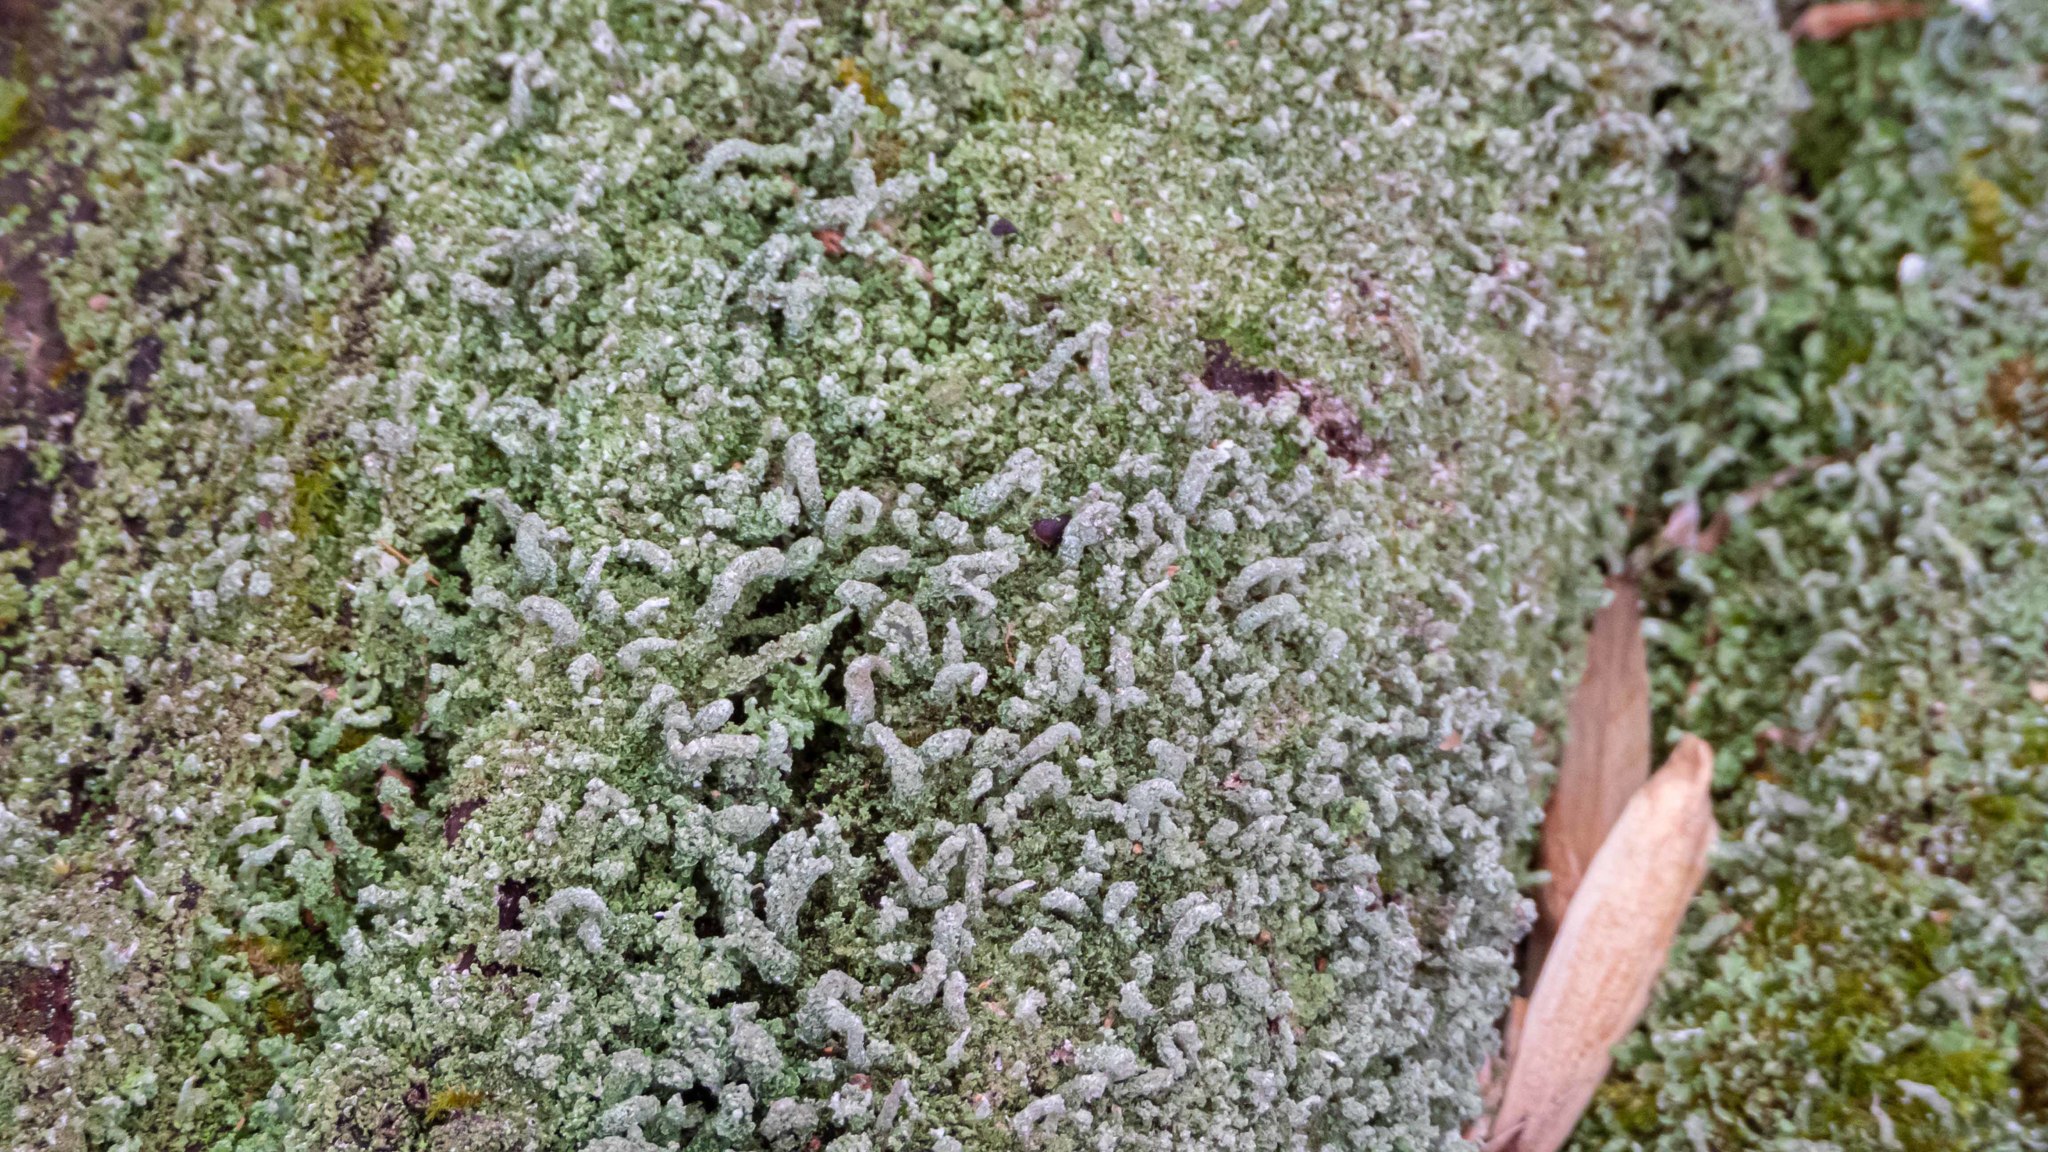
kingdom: Fungi
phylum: Ascomycota
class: Lecanoromycetes
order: Lecanorales
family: Cladoniaceae
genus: Cladonia
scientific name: Cladonia coniocraea
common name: Common powderhorn
